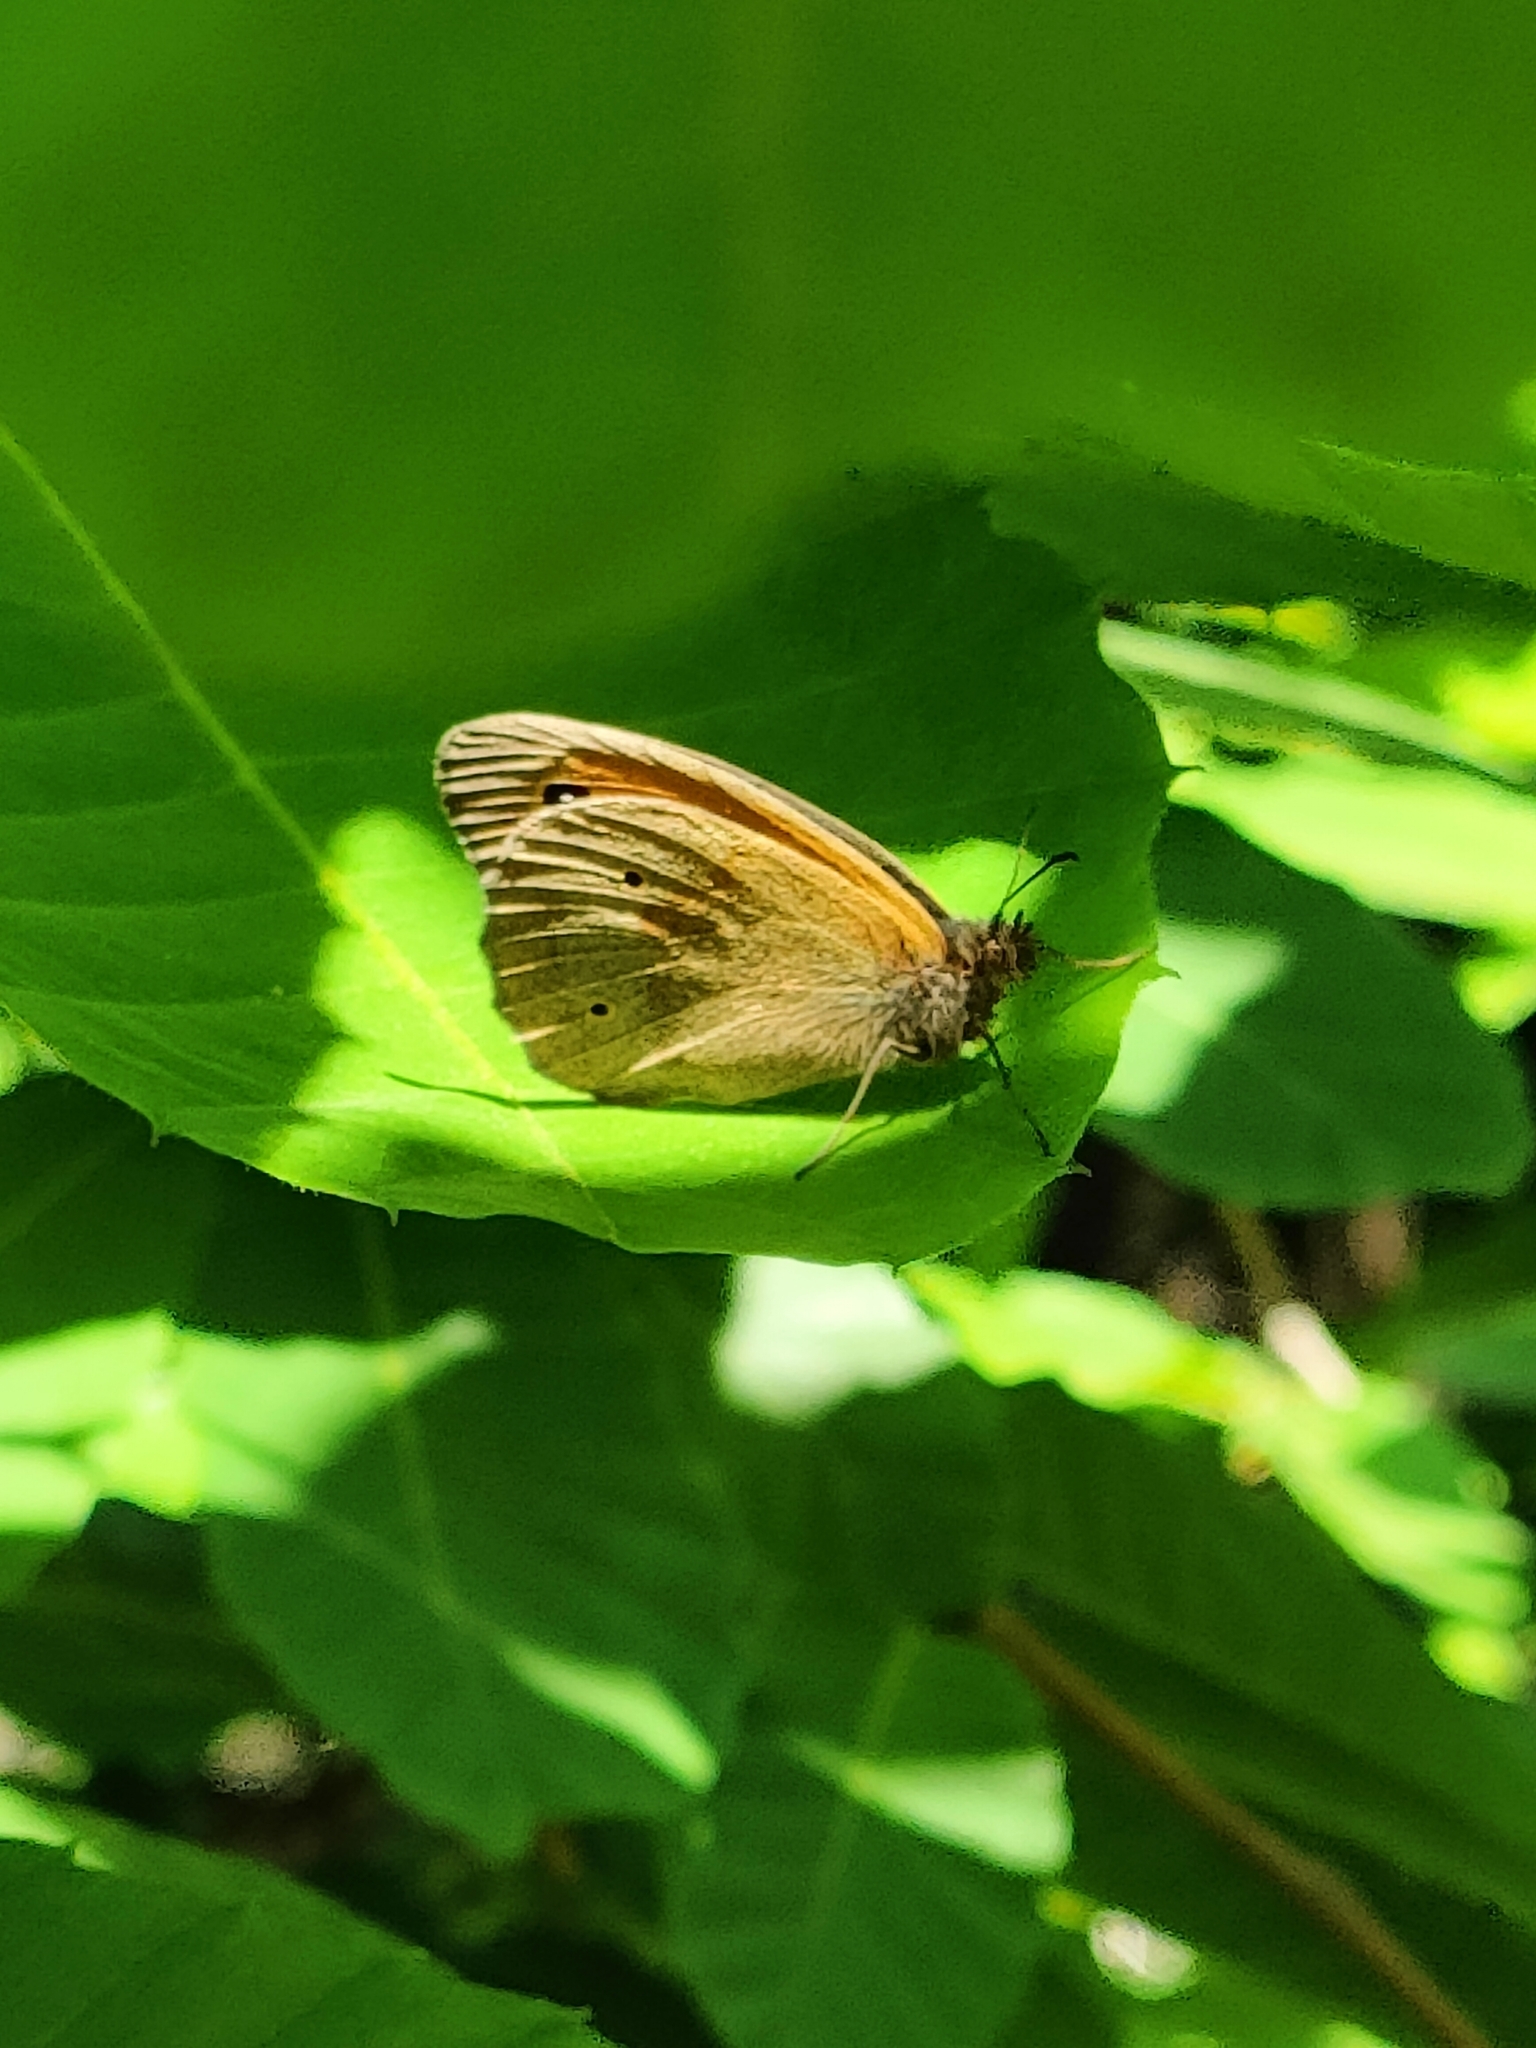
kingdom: Animalia
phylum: Arthropoda
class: Insecta
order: Lepidoptera
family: Nymphalidae
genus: Maniola
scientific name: Maniola jurtina
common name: Meadow brown
